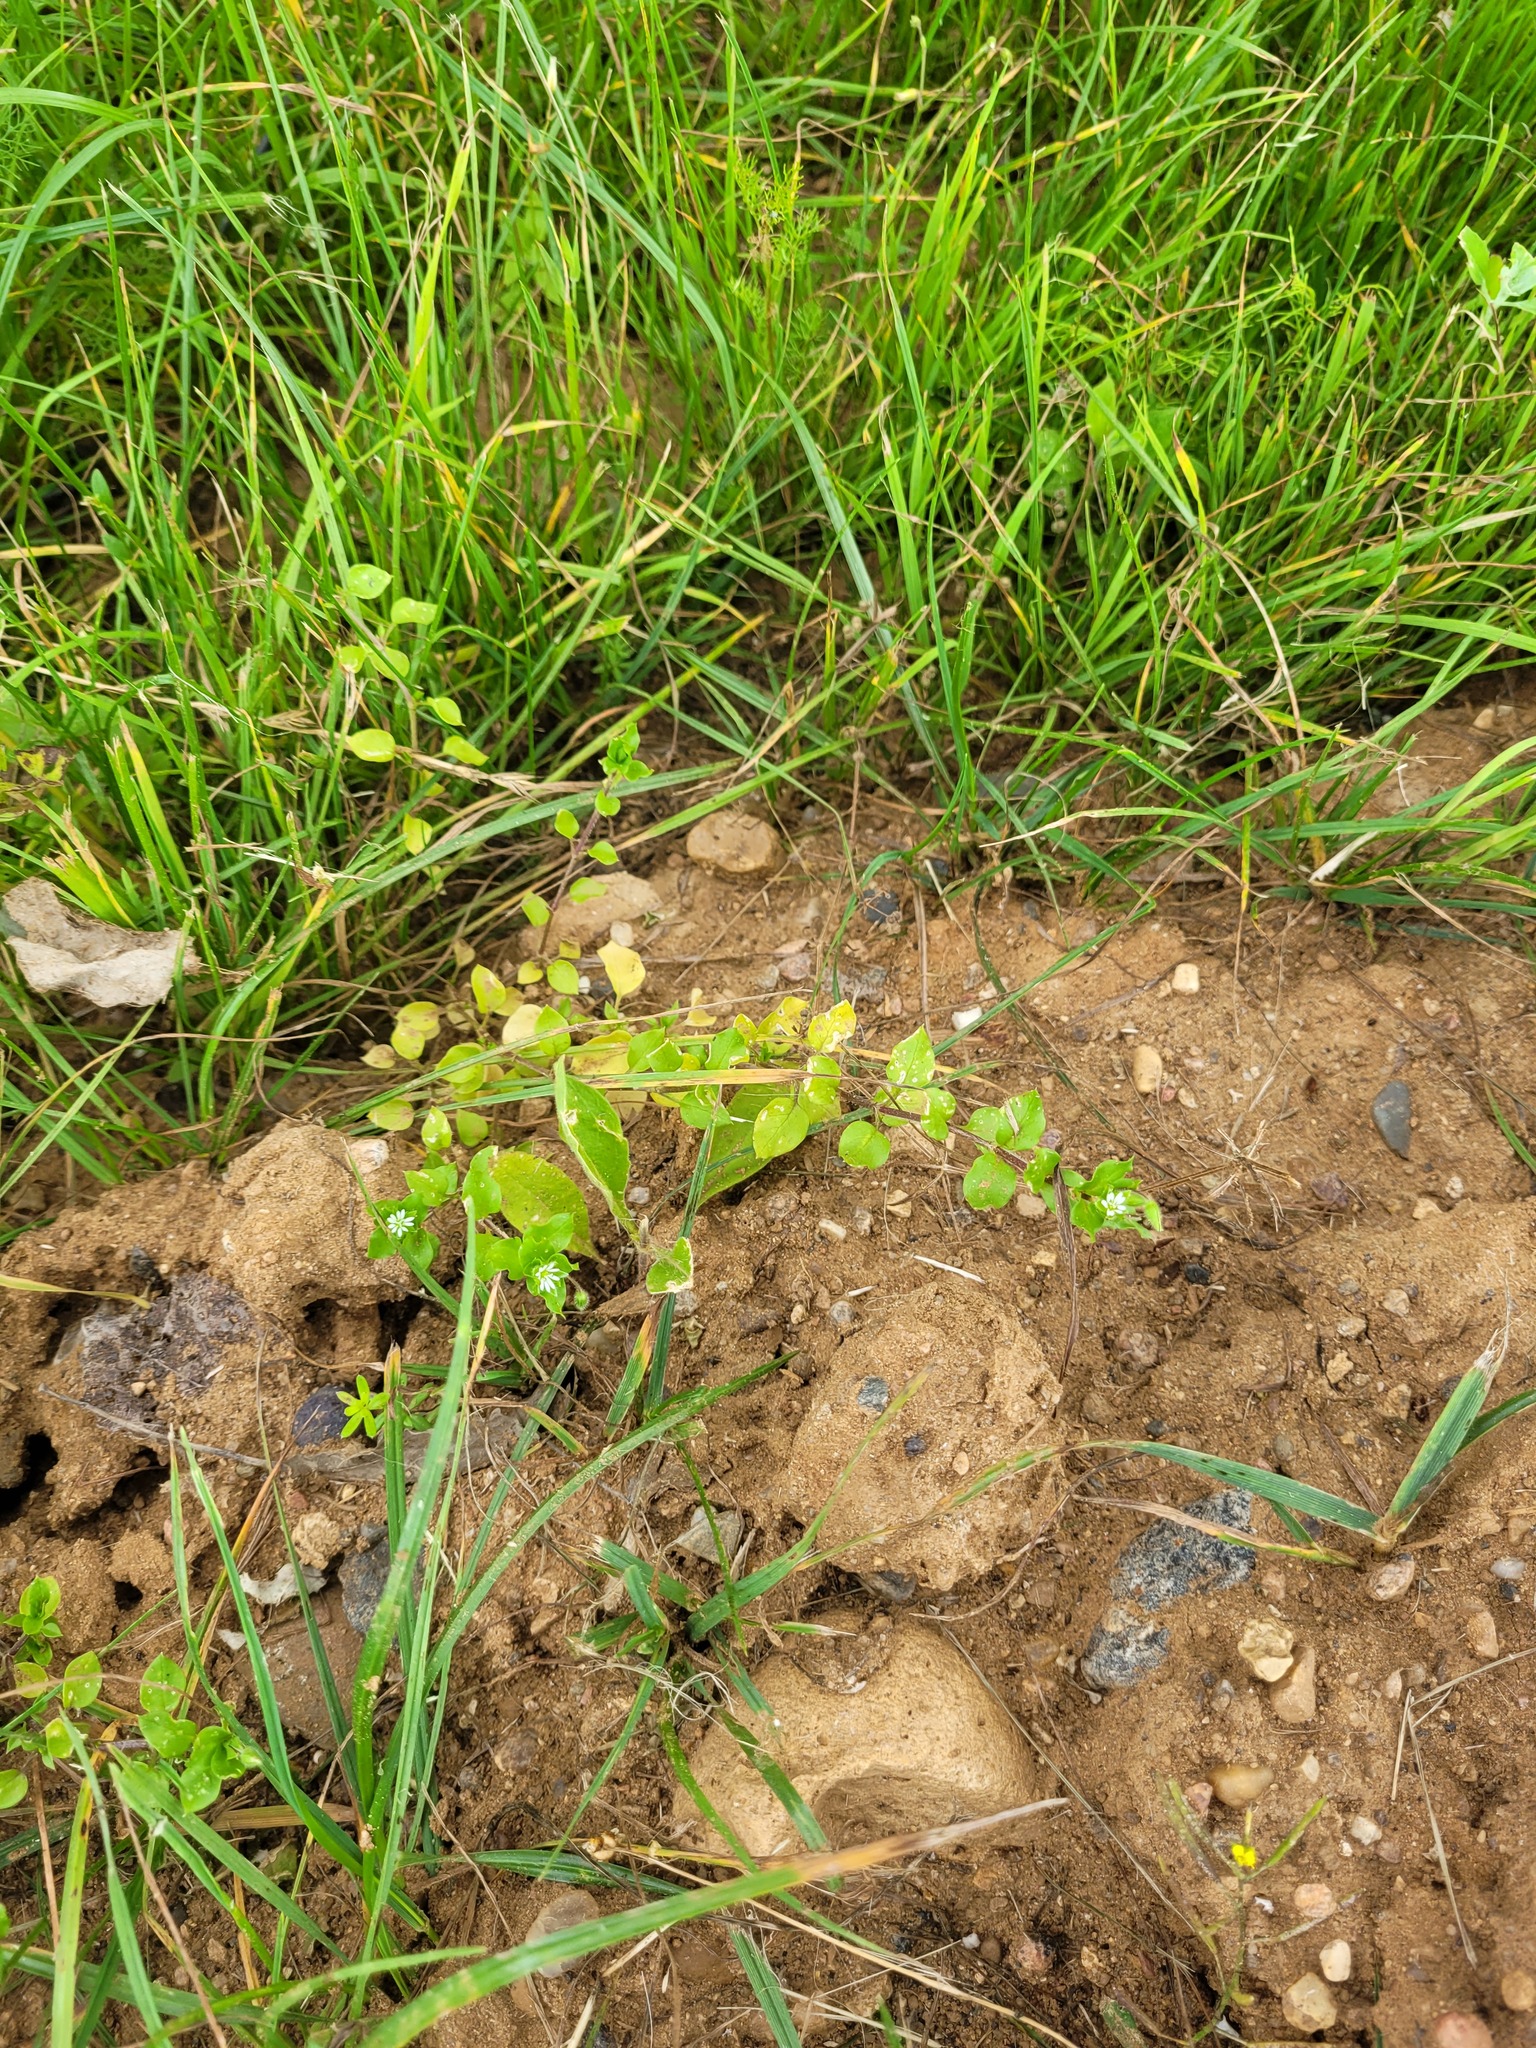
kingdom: Plantae
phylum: Tracheophyta
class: Magnoliopsida
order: Caryophyllales
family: Caryophyllaceae
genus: Stellaria
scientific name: Stellaria media
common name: Common chickweed
